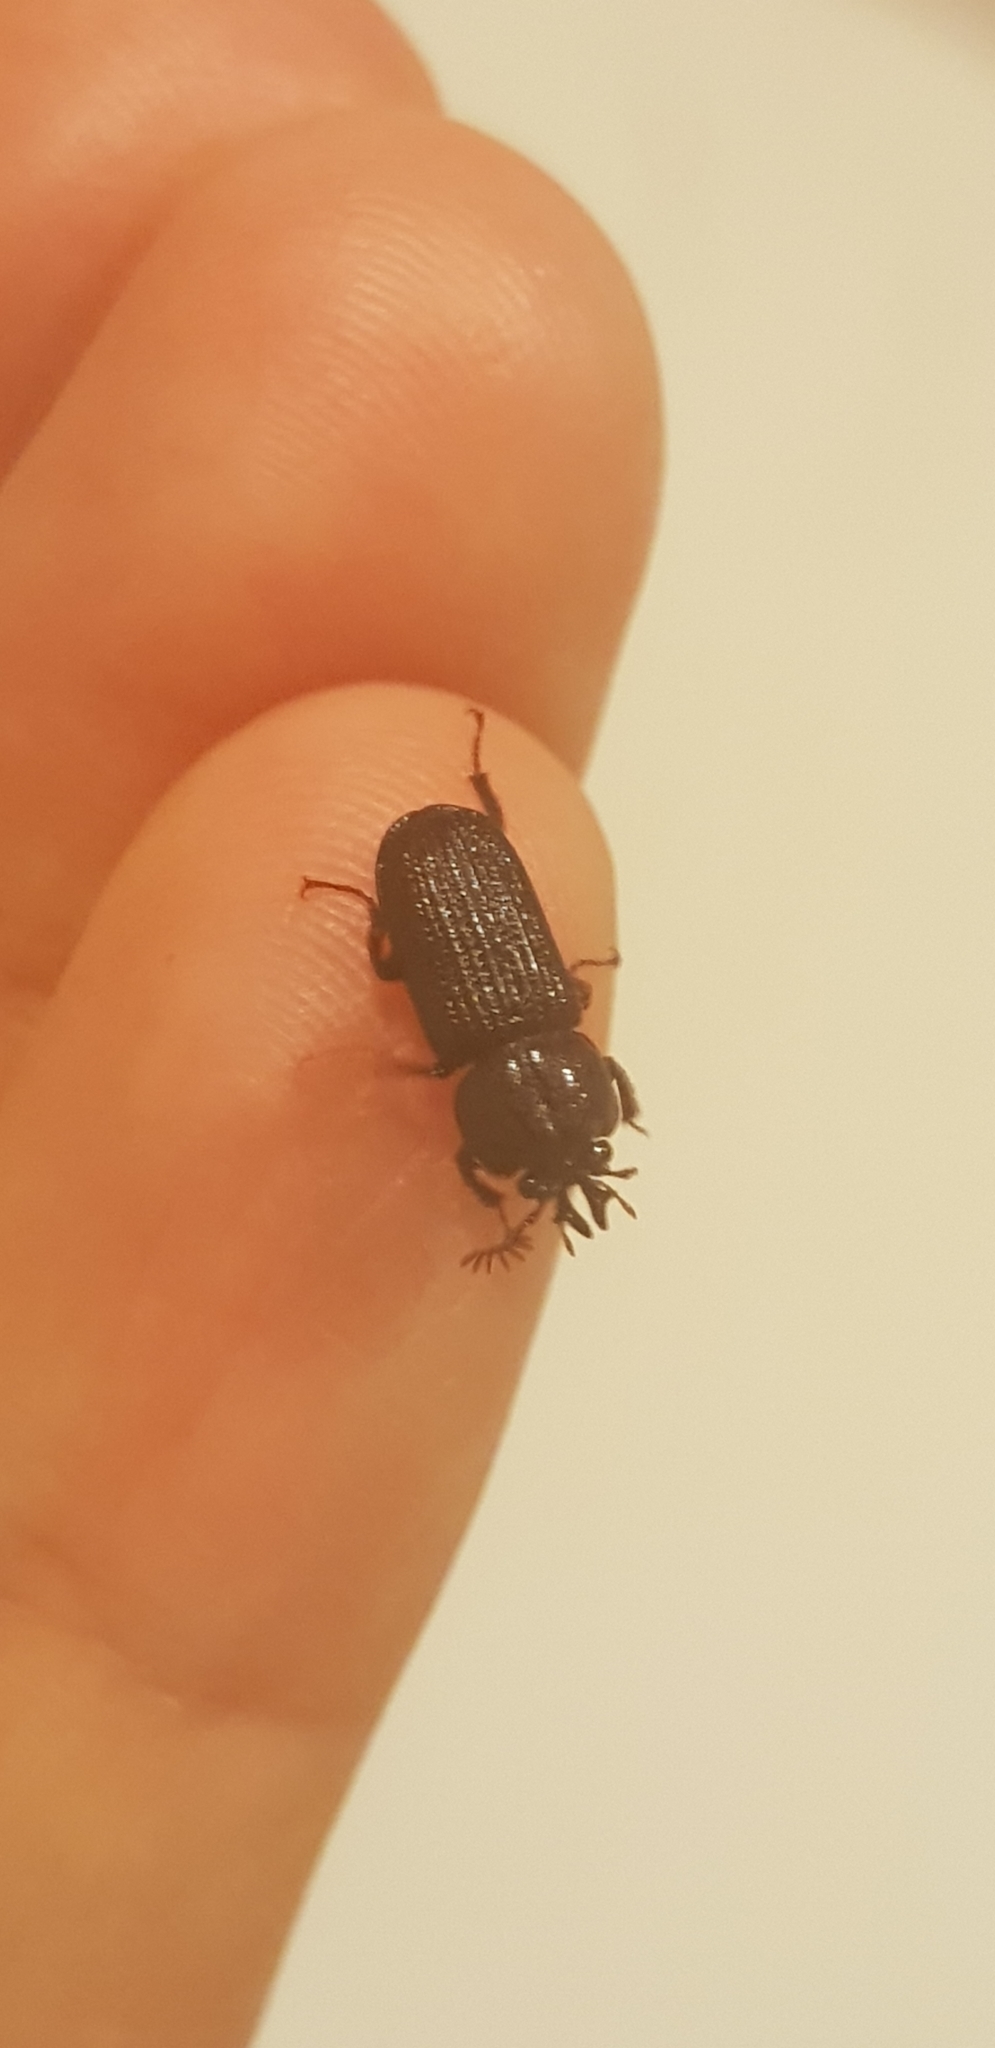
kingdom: Animalia
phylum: Arthropoda
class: Insecta
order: Coleoptera
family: Lucanidae
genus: Syndesus
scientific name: Syndesus cornutus
